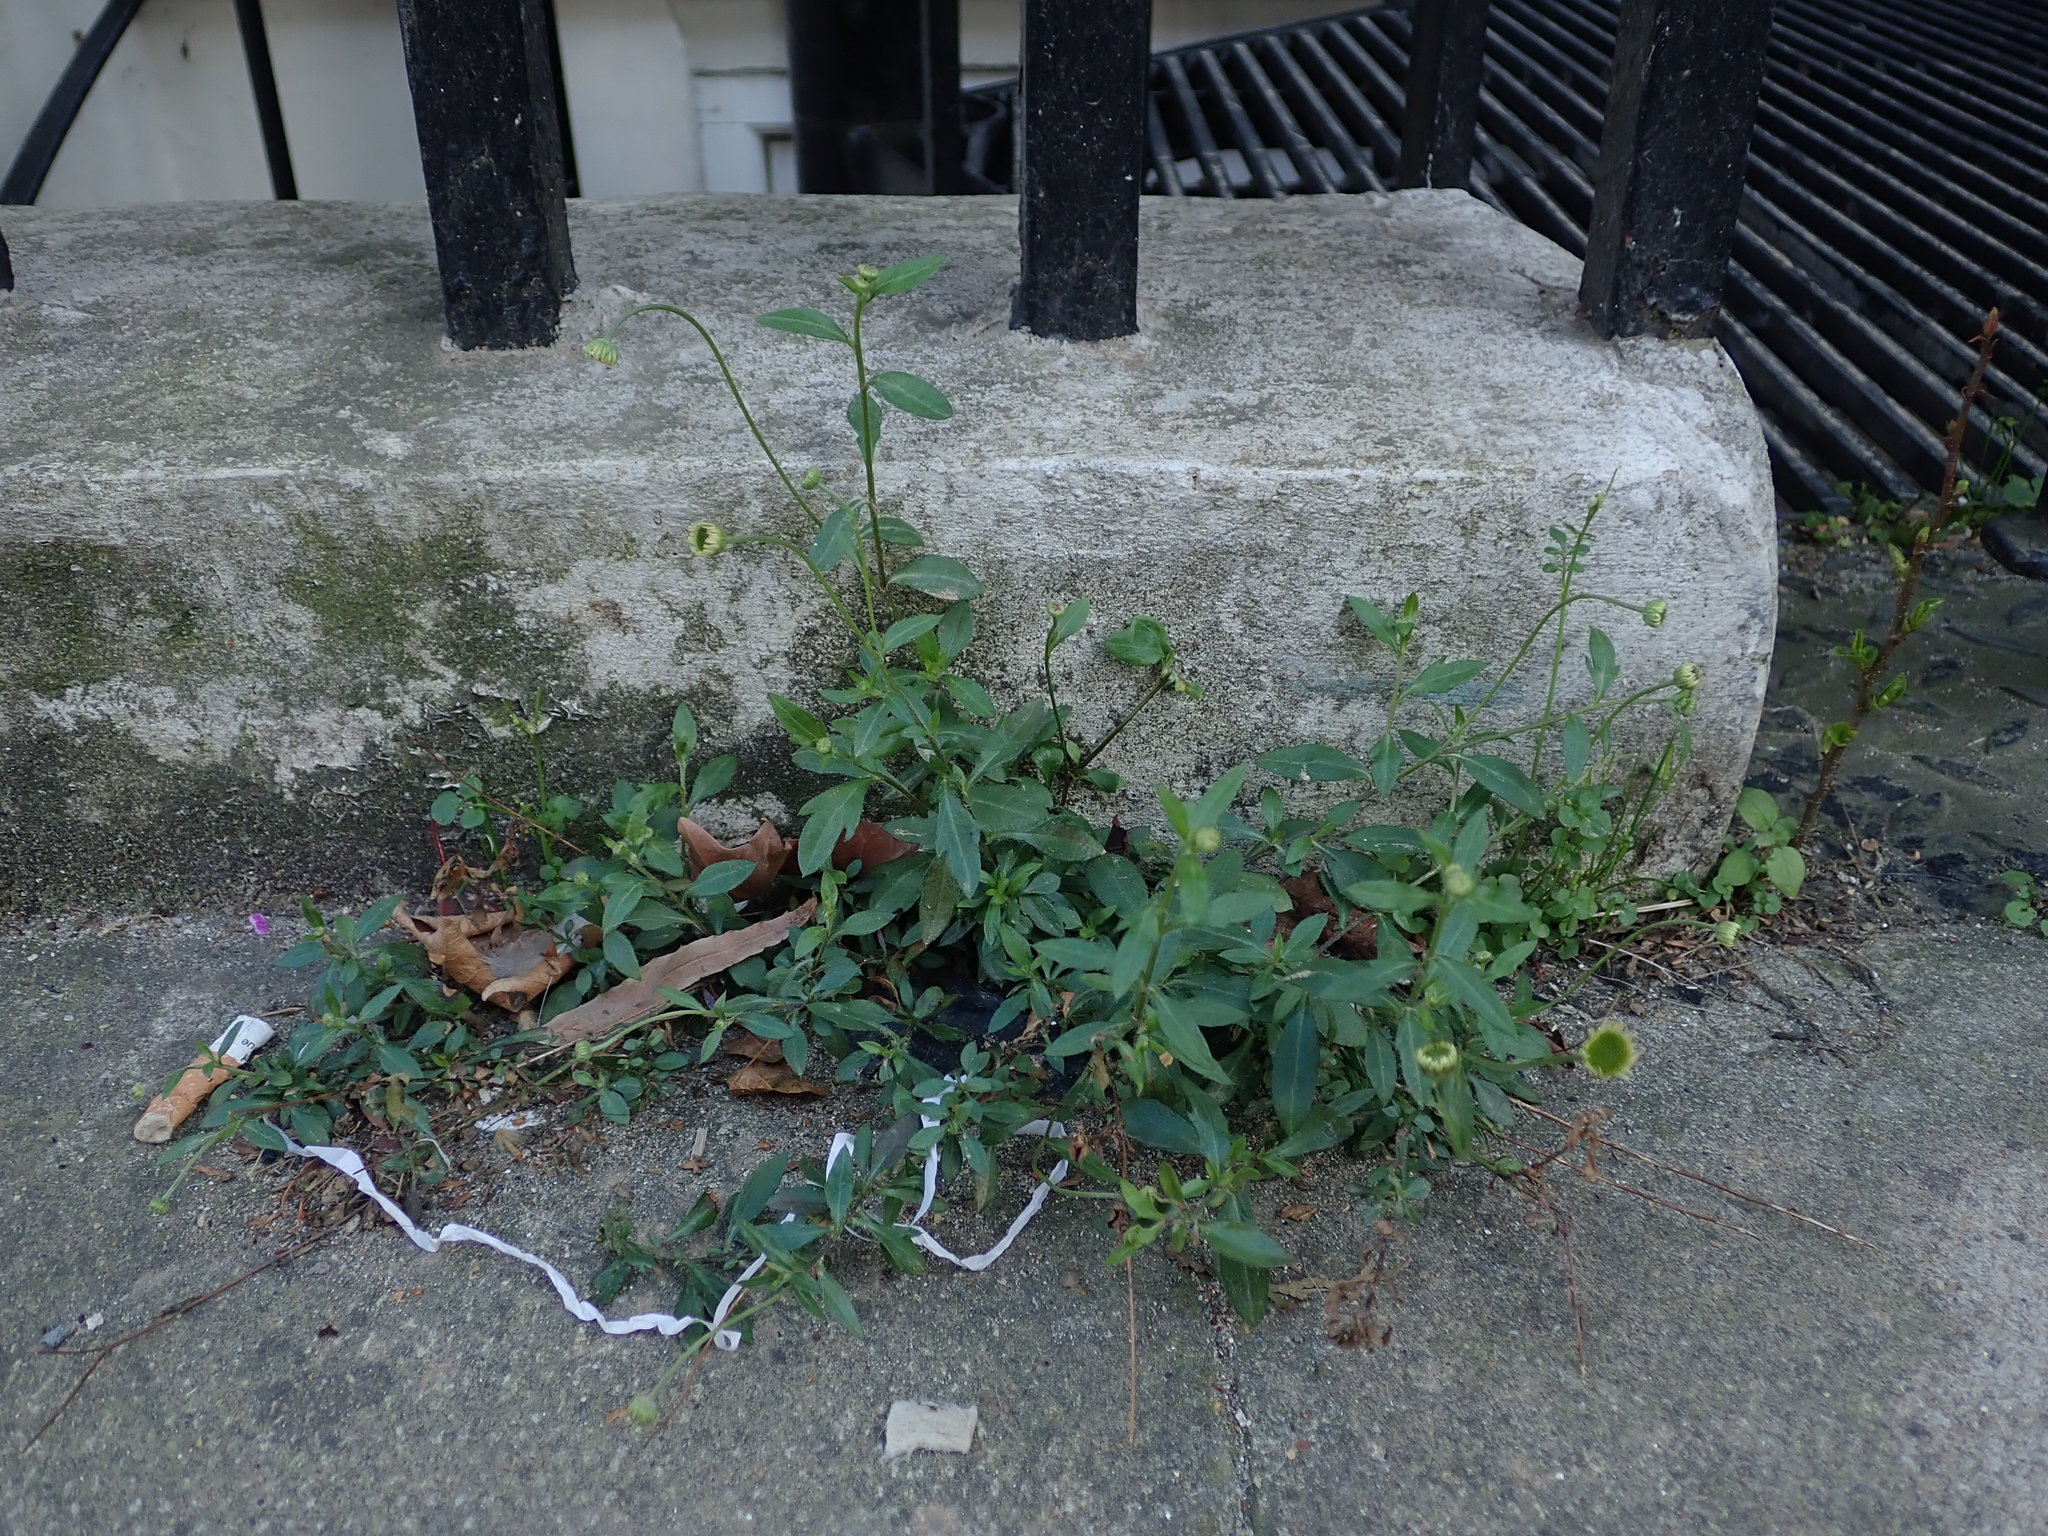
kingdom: Plantae
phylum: Tracheophyta
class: Magnoliopsida
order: Asterales
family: Asteraceae
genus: Erigeron
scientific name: Erigeron karvinskianus
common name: Mexican fleabane
